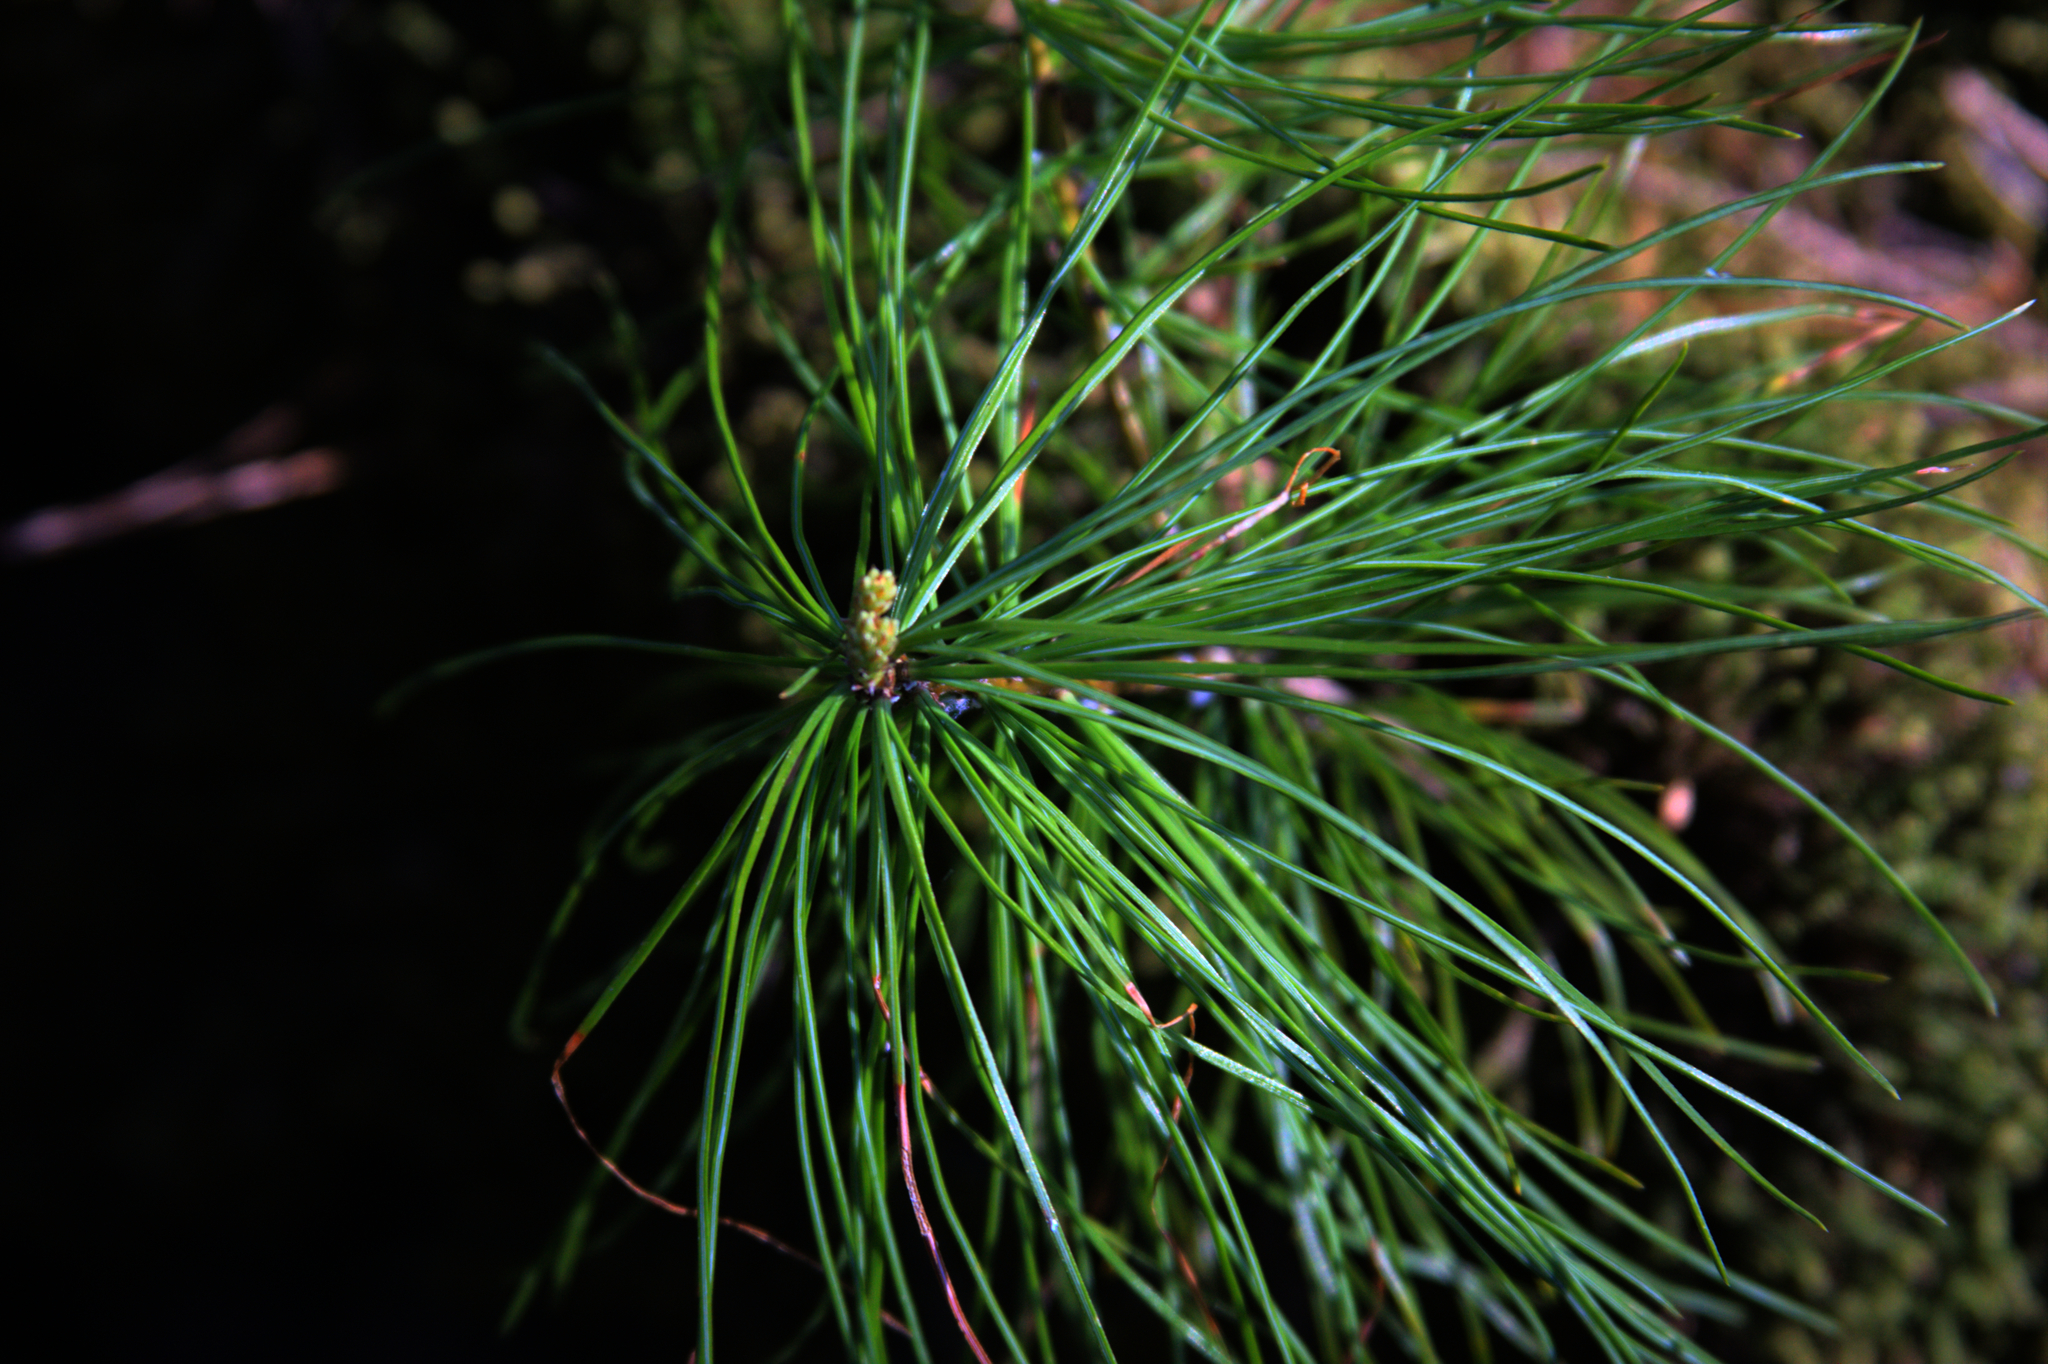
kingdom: Plantae
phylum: Tracheophyta
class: Pinopsida
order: Pinales
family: Pinaceae
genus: Pinus
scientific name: Pinus strobus
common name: Weymouth pine
